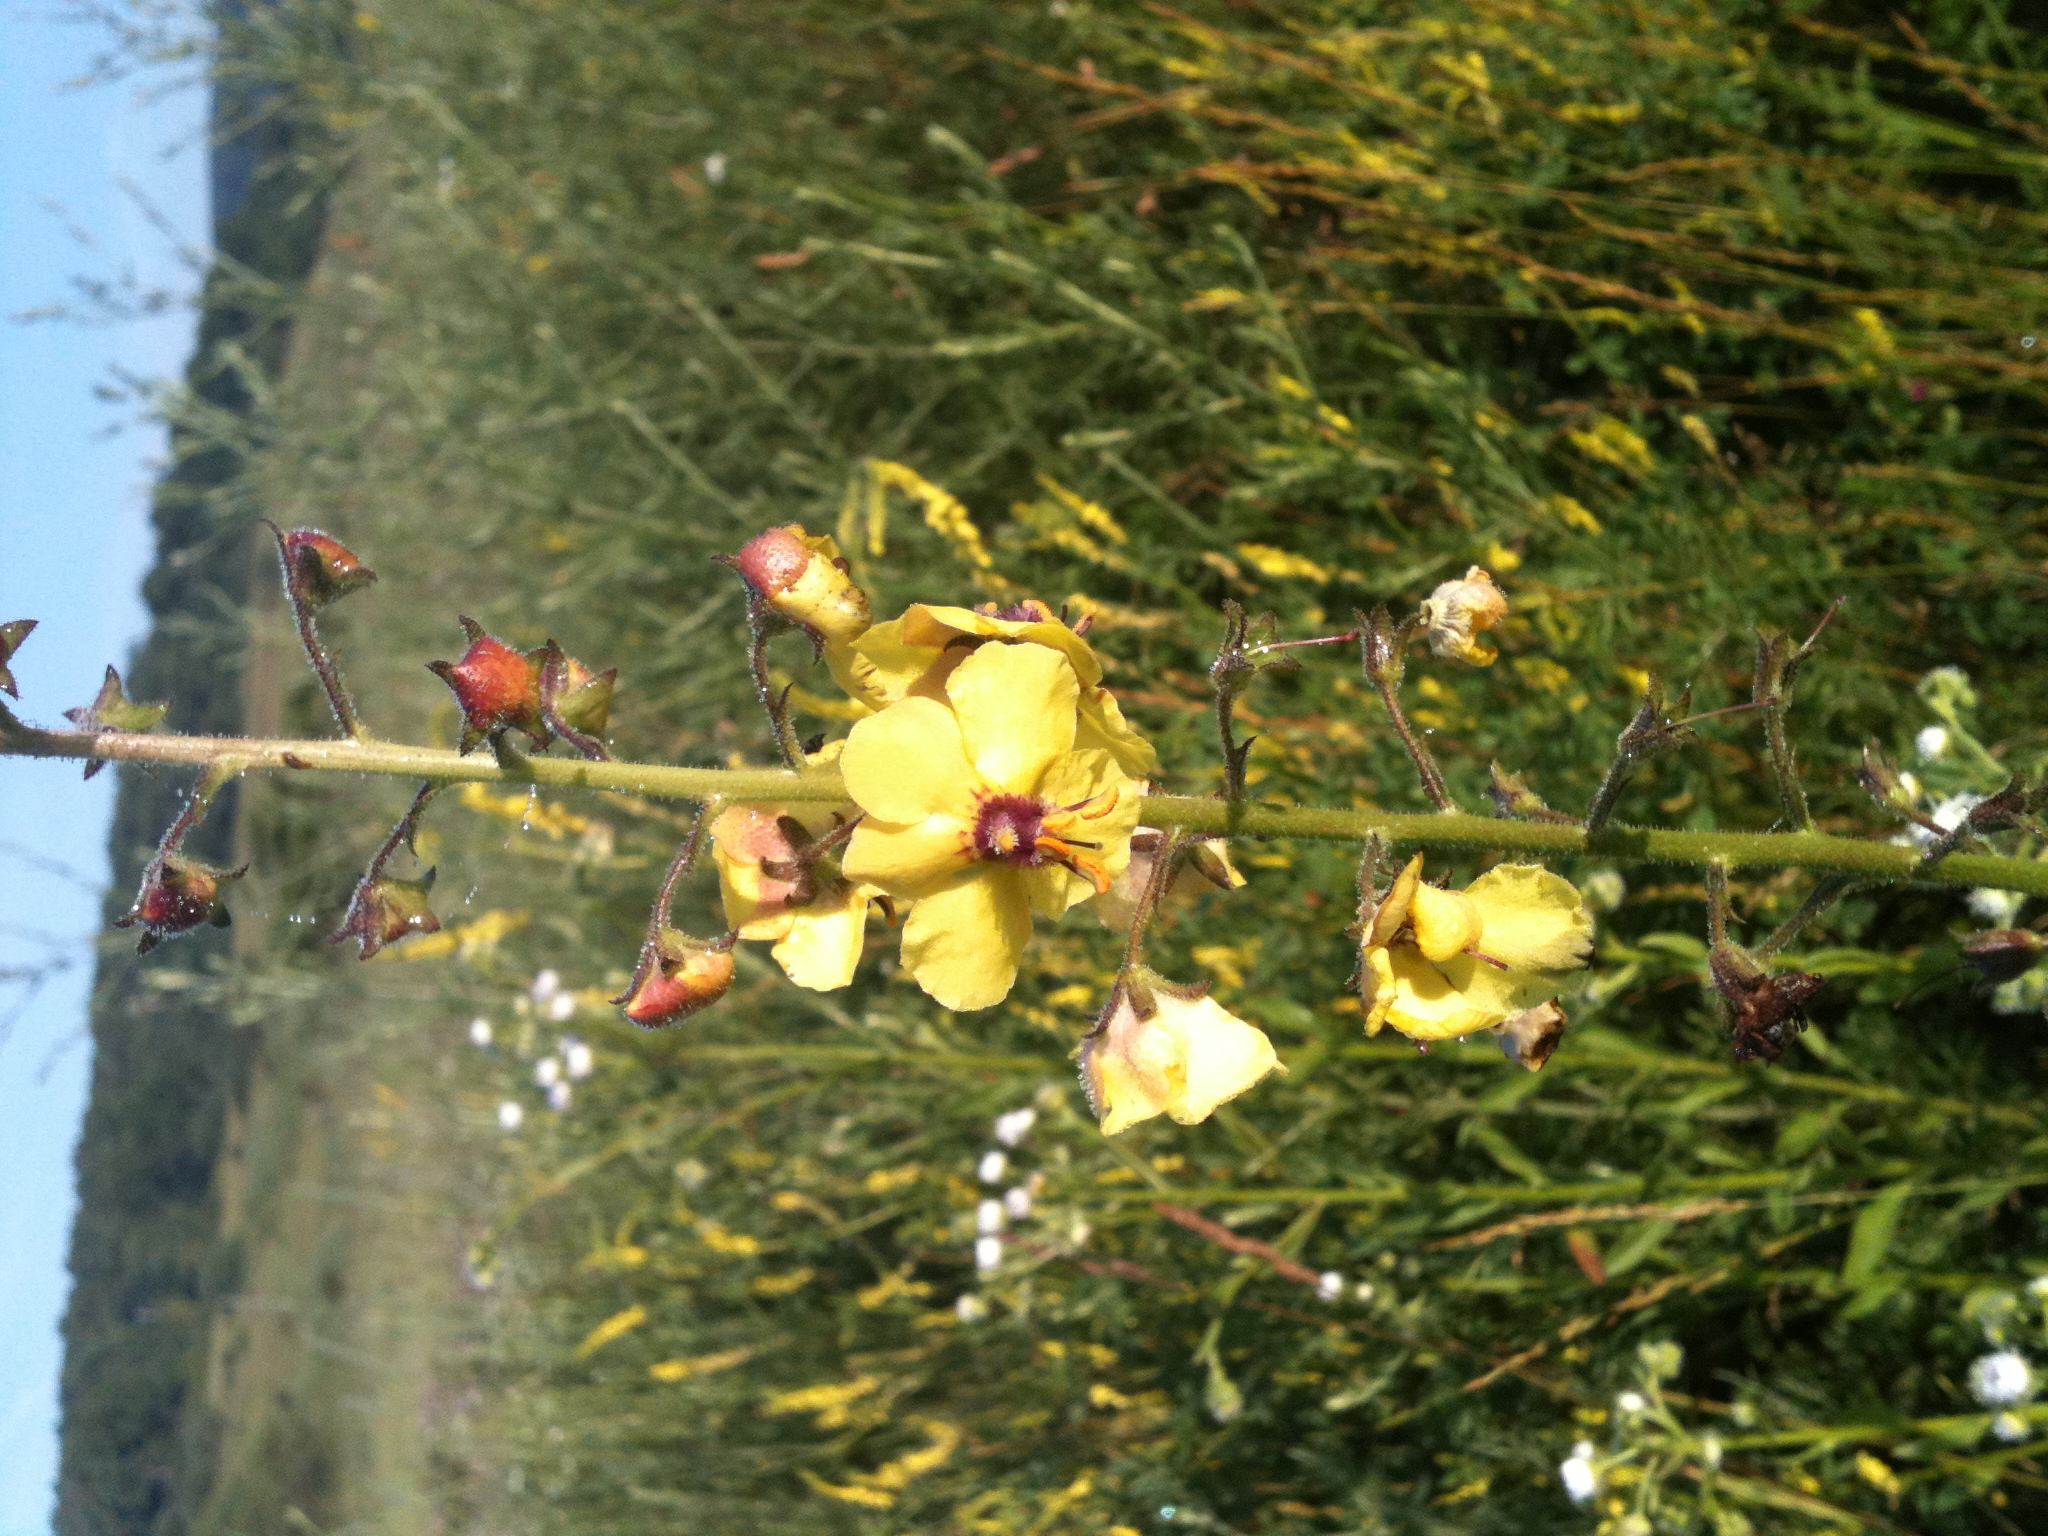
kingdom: Plantae
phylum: Tracheophyta
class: Magnoliopsida
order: Lamiales
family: Scrophulariaceae
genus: Verbascum
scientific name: Verbascum blattaria
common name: Moth mullein
